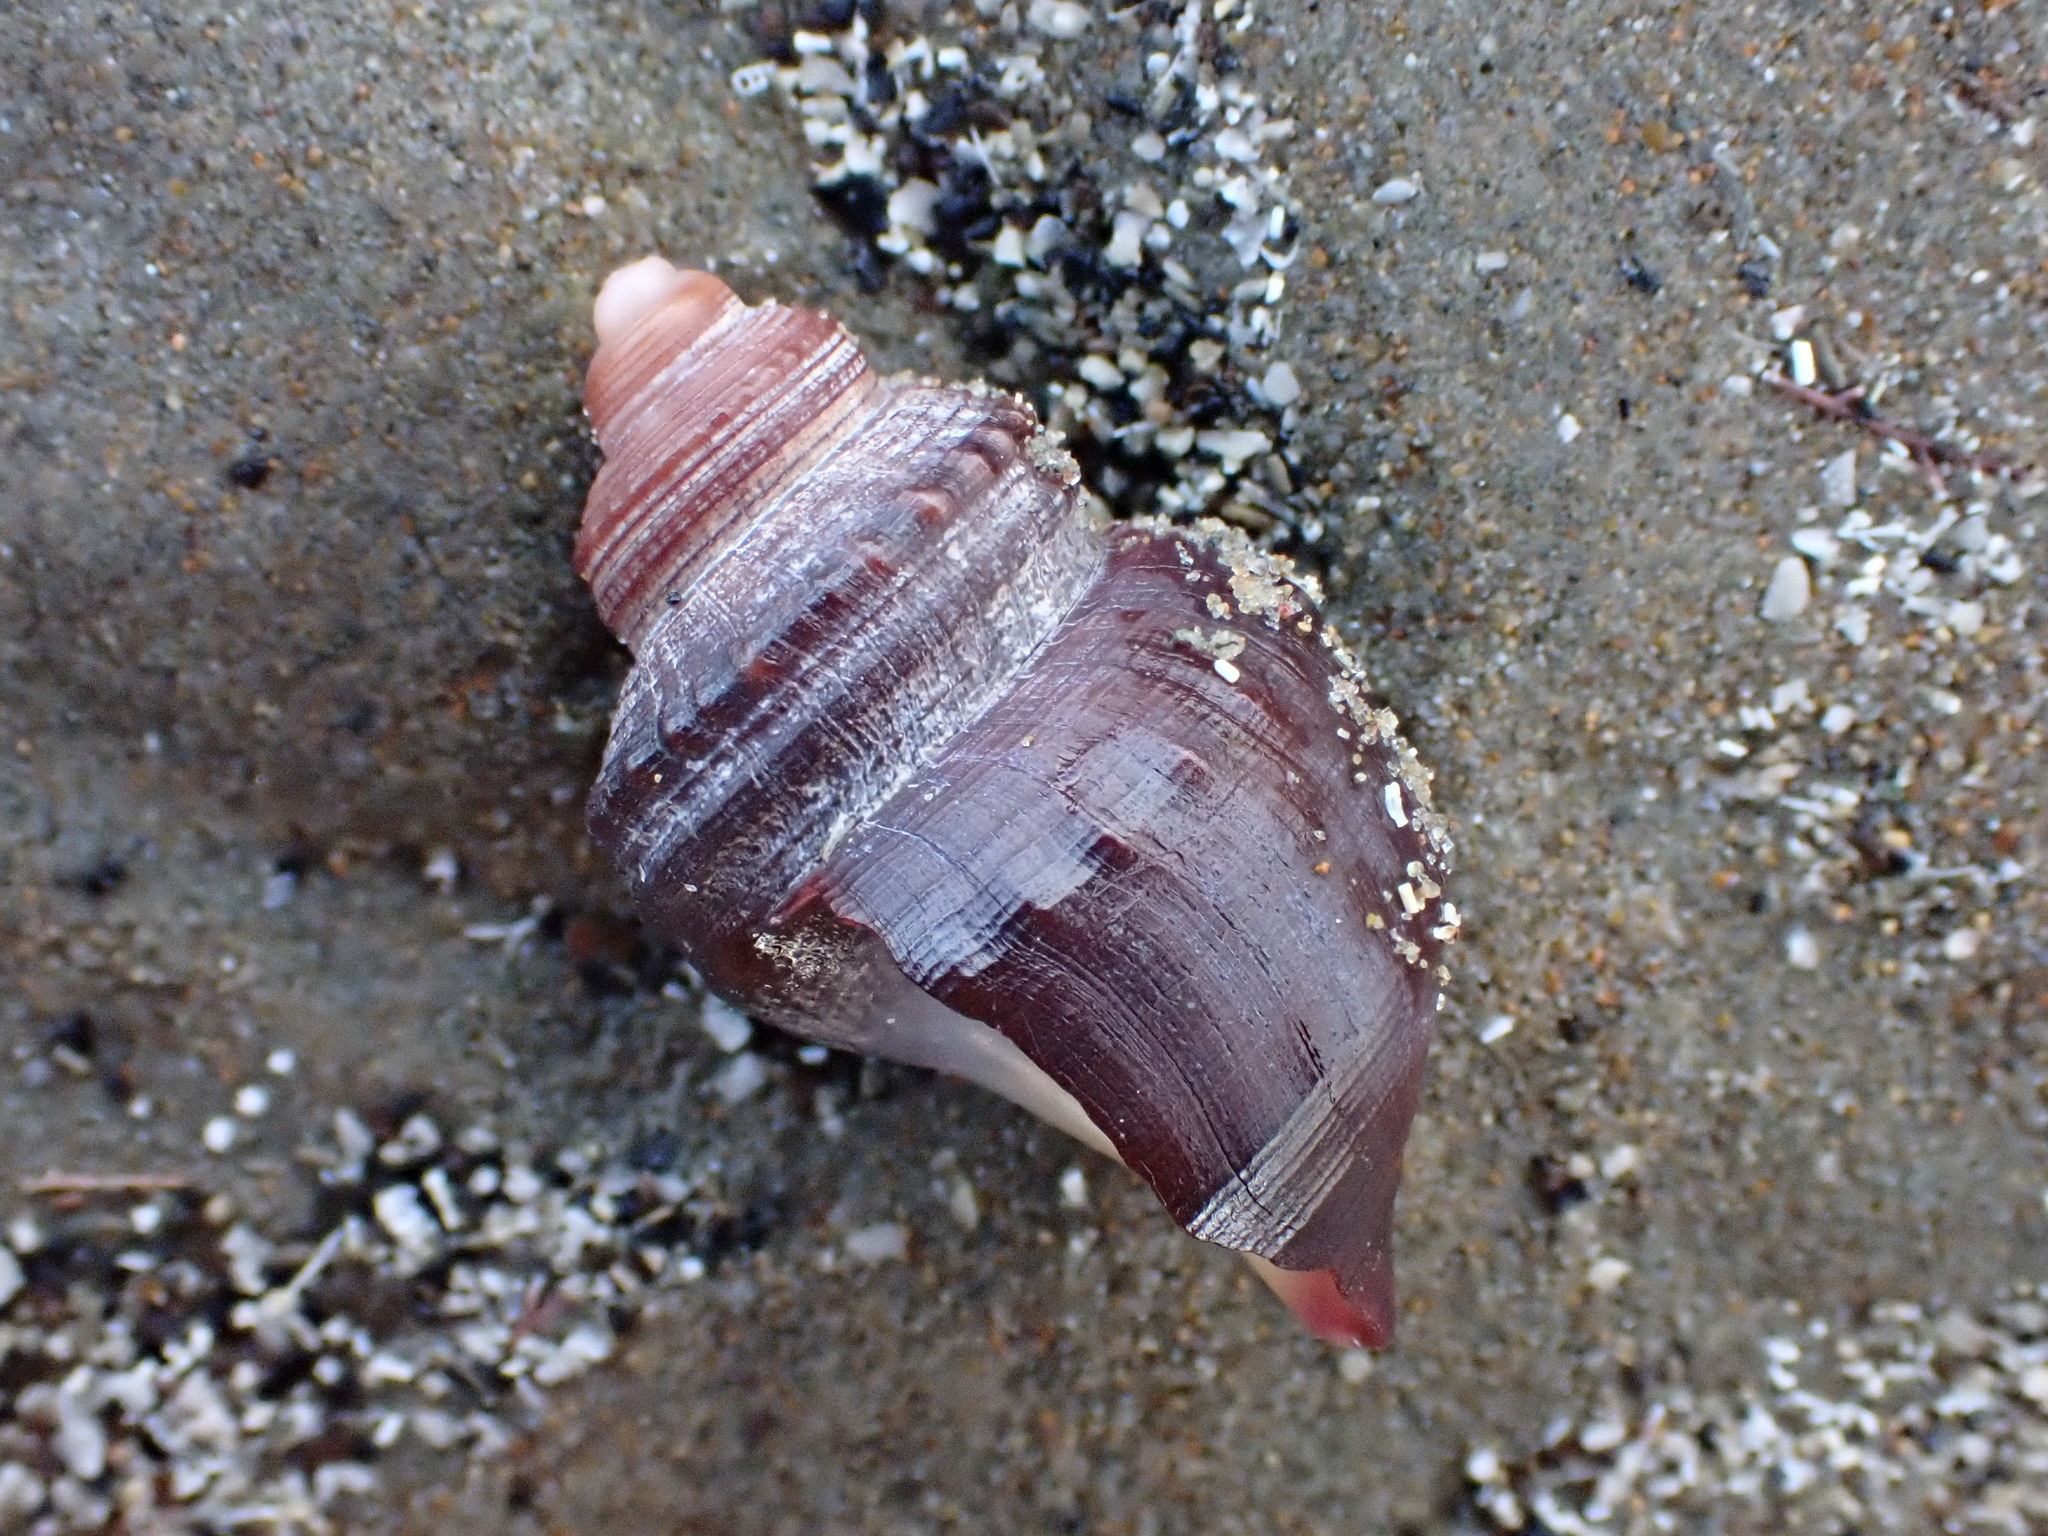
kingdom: Animalia
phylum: Mollusca
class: Gastropoda
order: Littorinimorpha
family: Struthiolariidae
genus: Pelicaria
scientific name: Pelicaria vermis
